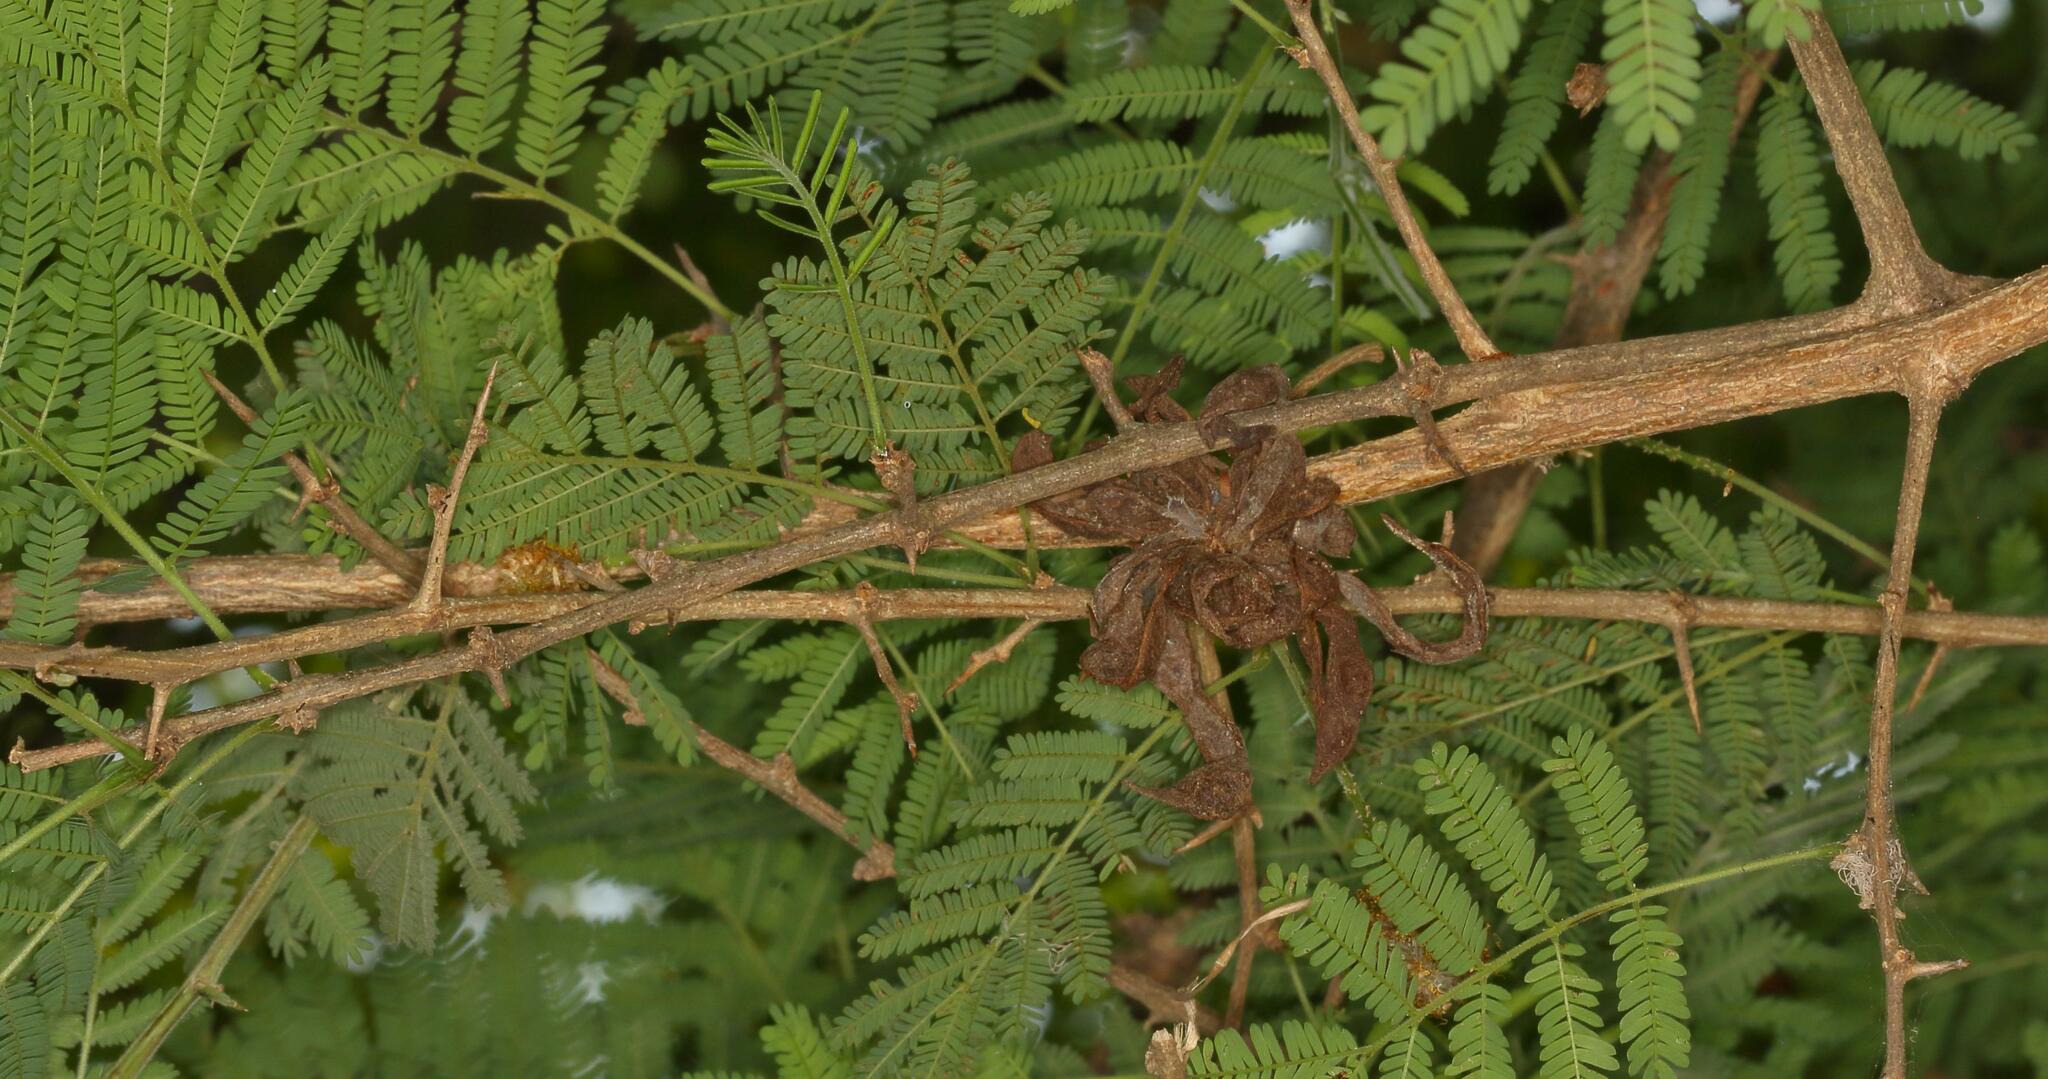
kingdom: Plantae
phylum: Tracheophyta
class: Magnoliopsida
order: Fabales
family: Fabaceae
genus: Dichrostachys
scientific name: Dichrostachys cinerea
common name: Sicklebush
